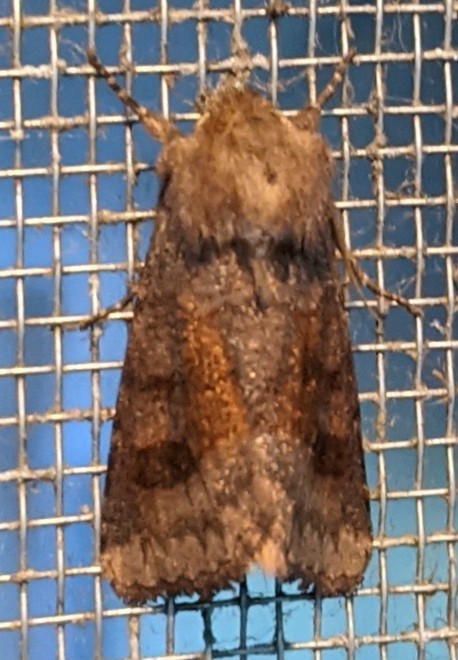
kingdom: Animalia
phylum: Arthropoda
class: Insecta
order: Lepidoptera
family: Noctuidae
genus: Nephelodes
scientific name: Nephelodes minians
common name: Bronzed cutworm
